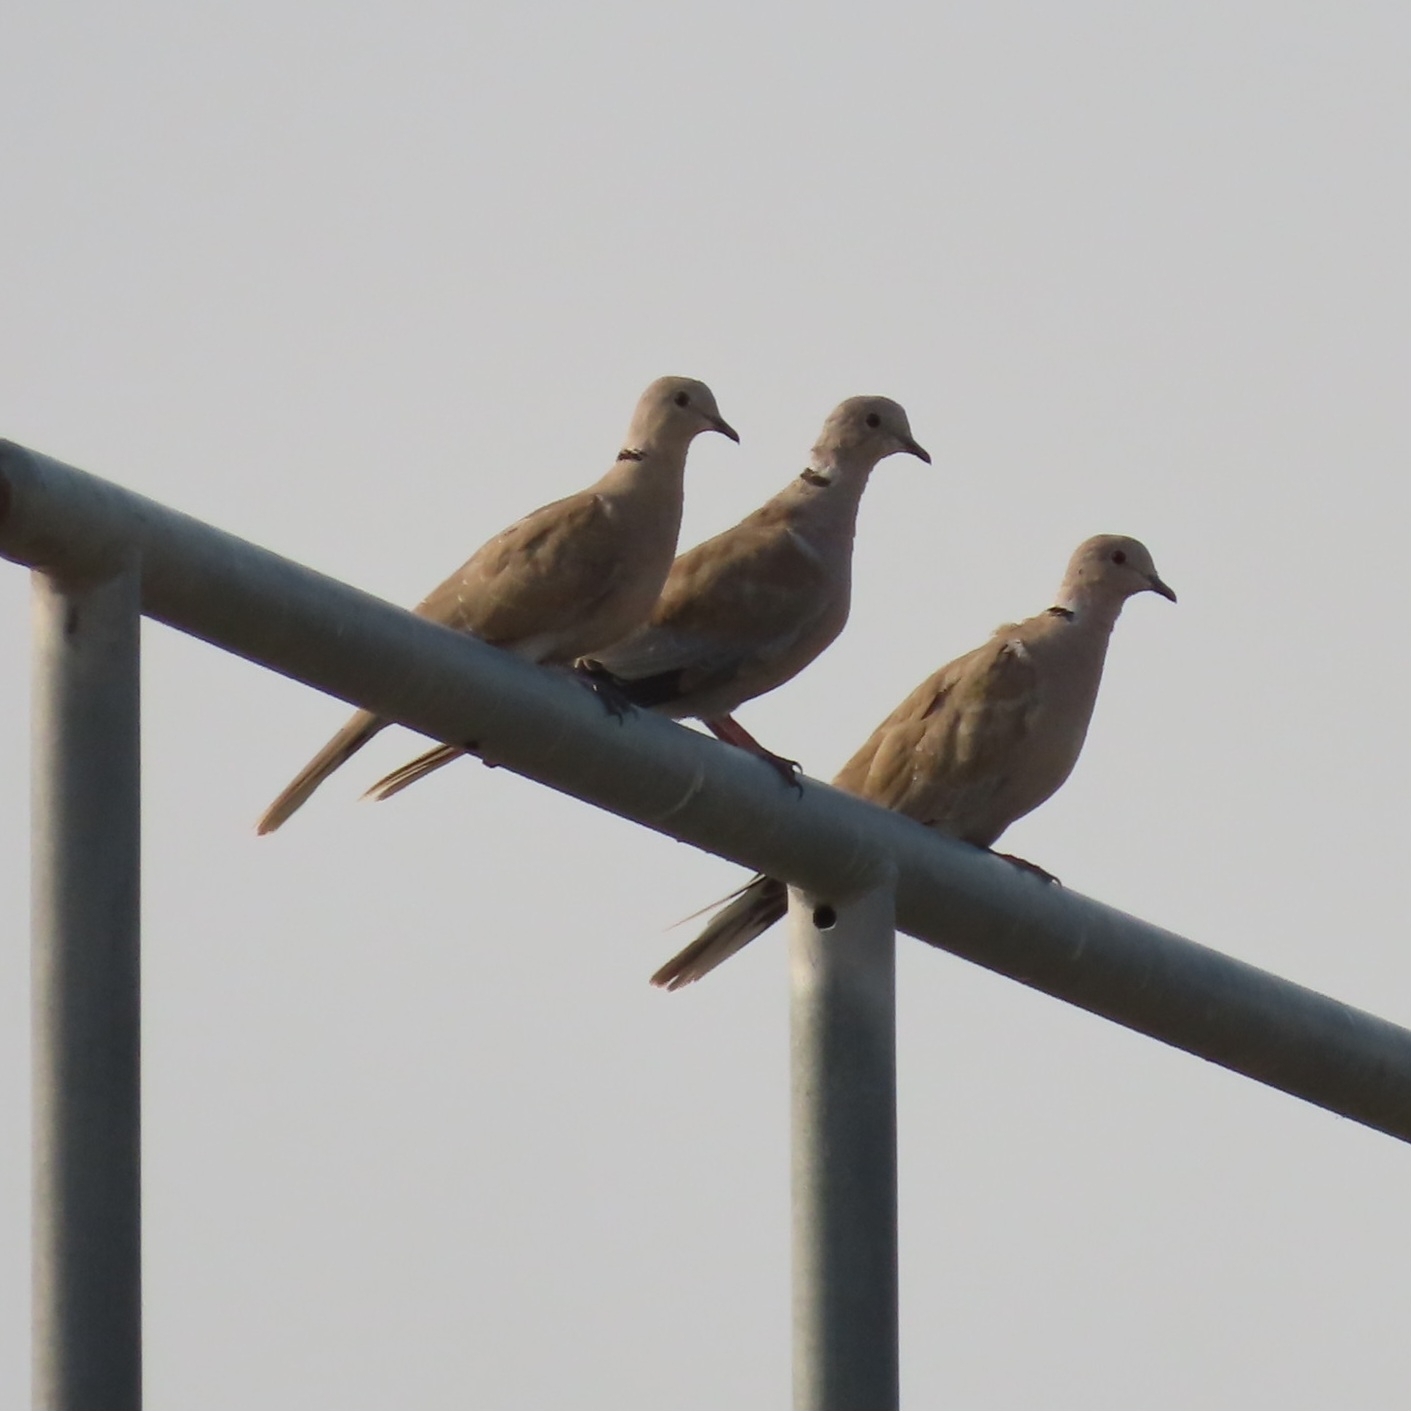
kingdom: Animalia
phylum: Chordata
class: Aves
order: Columbiformes
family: Columbidae
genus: Streptopelia
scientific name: Streptopelia decaocto
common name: Eurasian collared dove
